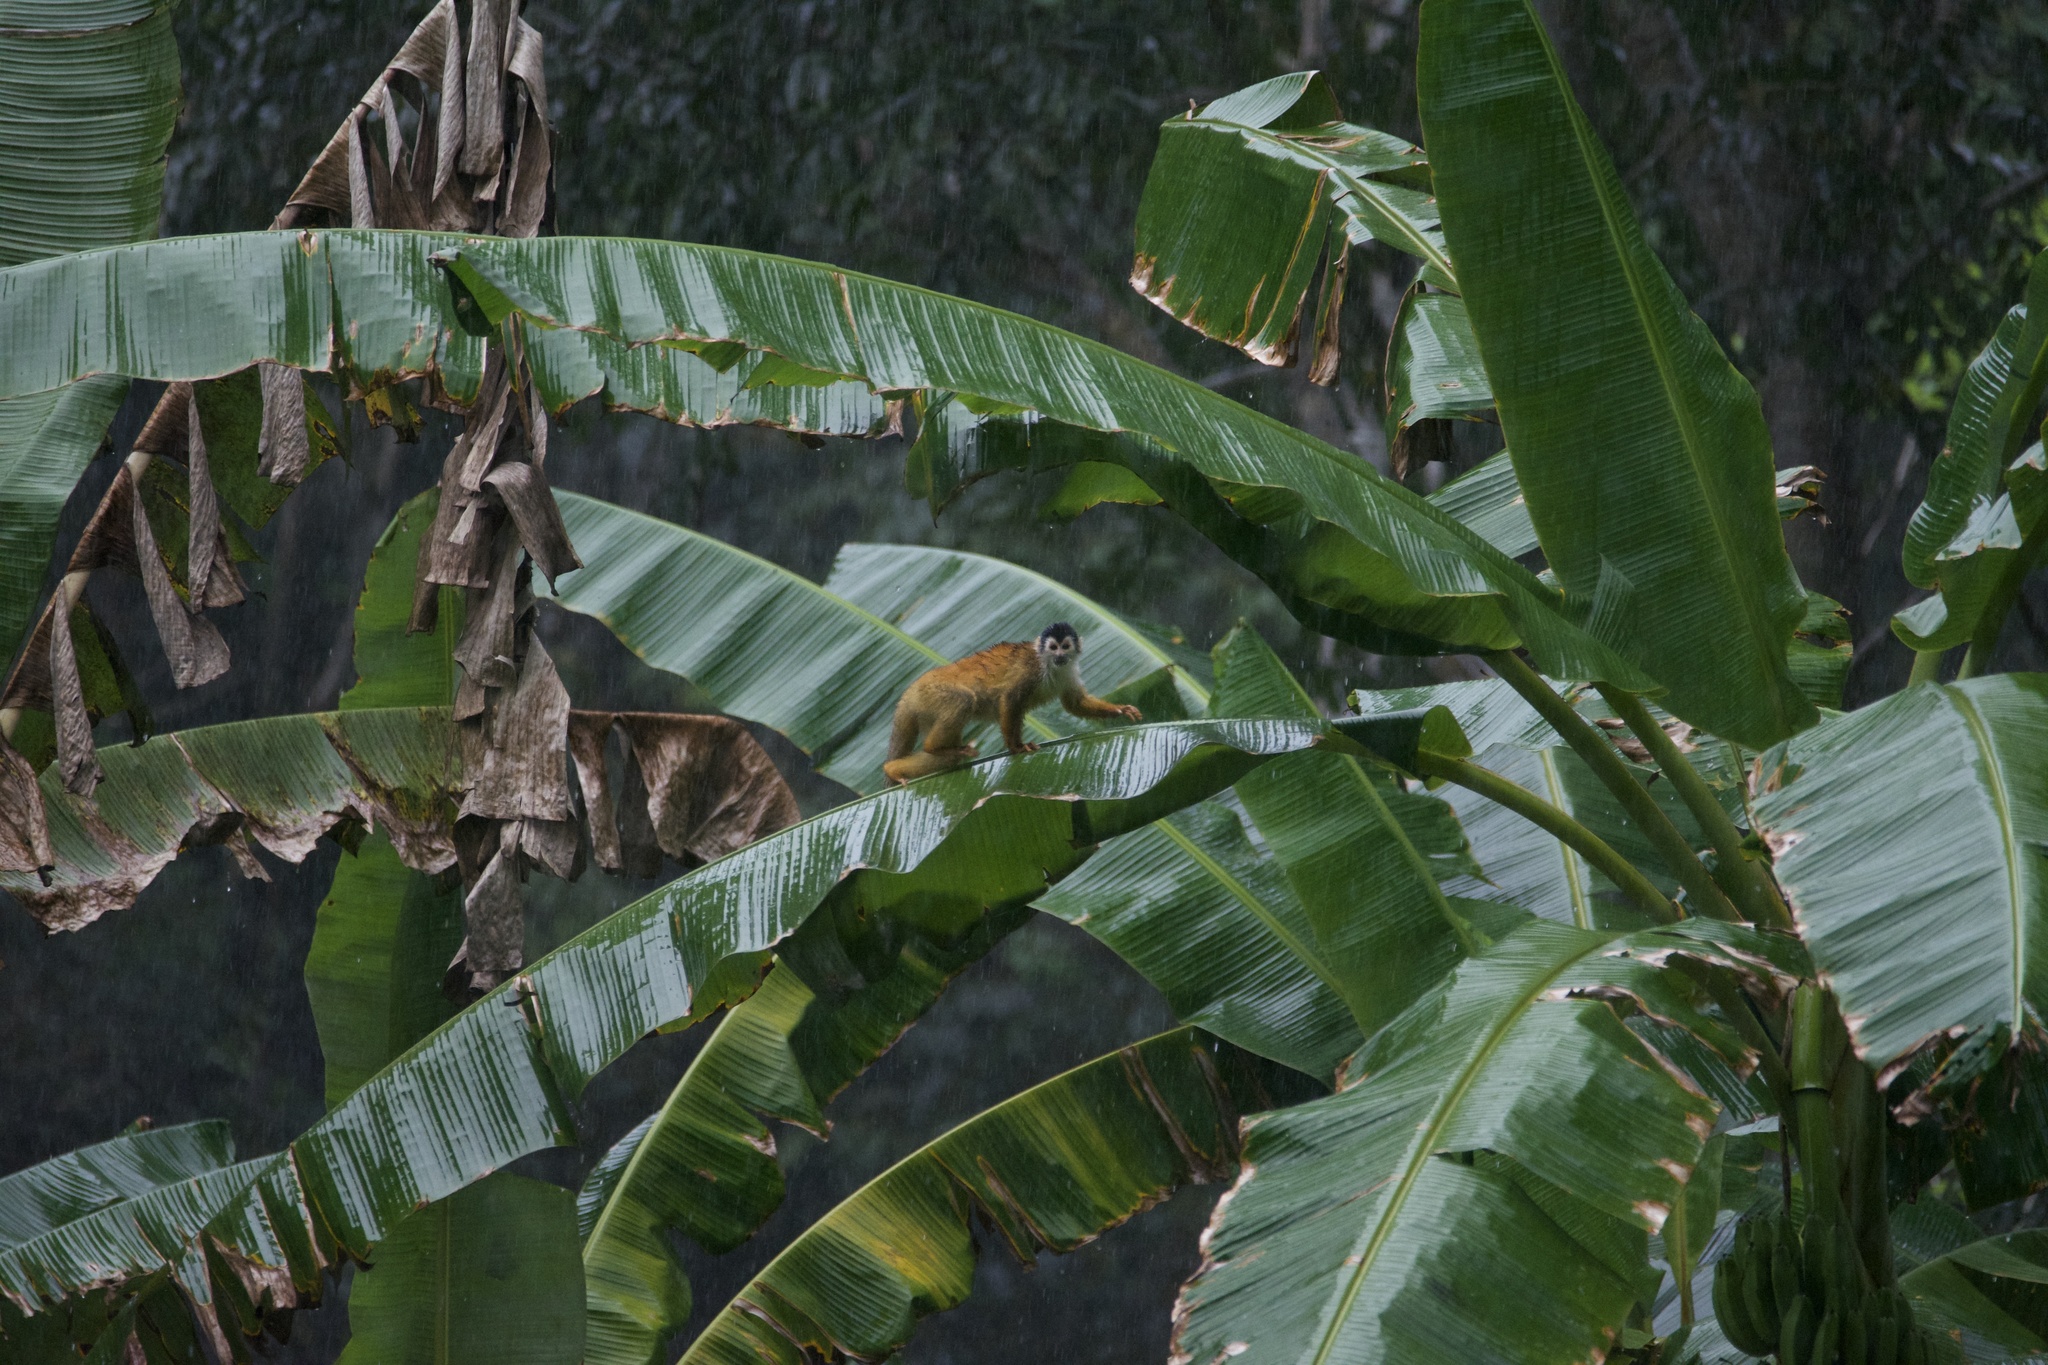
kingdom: Animalia
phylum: Chordata
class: Mammalia
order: Primates
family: Cebidae
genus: Saimiri
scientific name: Saimiri oerstedii
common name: Central american squirrel monkey
